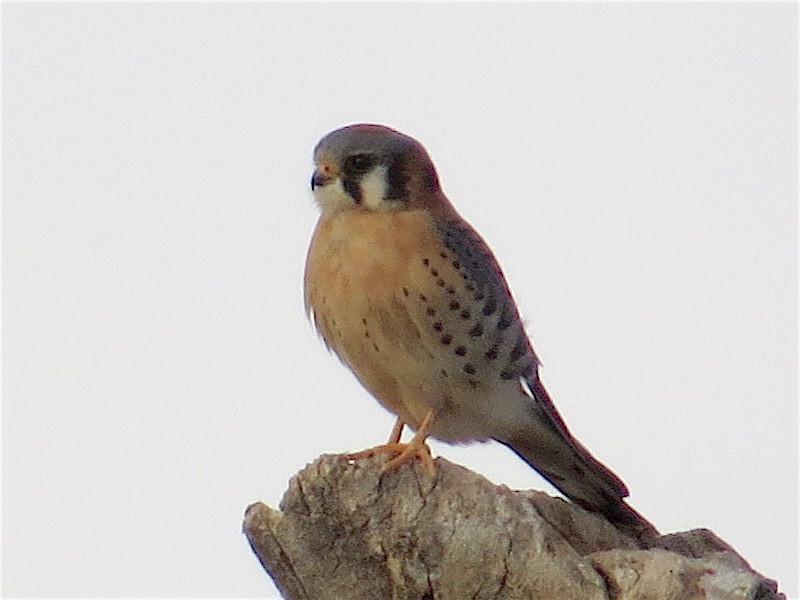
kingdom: Animalia
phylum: Chordata
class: Aves
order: Falconiformes
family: Falconidae
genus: Falco
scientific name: Falco sparverius
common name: American kestrel
